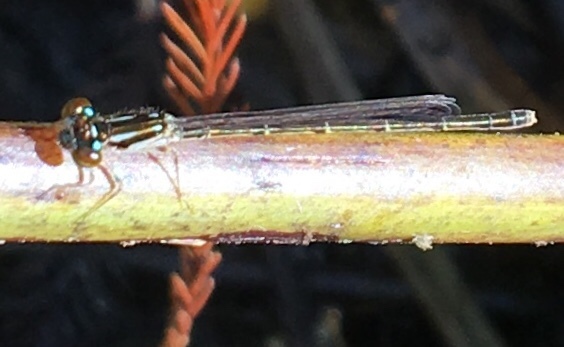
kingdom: Animalia
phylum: Arthropoda
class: Insecta
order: Odonata
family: Coenagrionidae
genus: Ischnura
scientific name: Ischnura posita
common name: Fragile forktail
